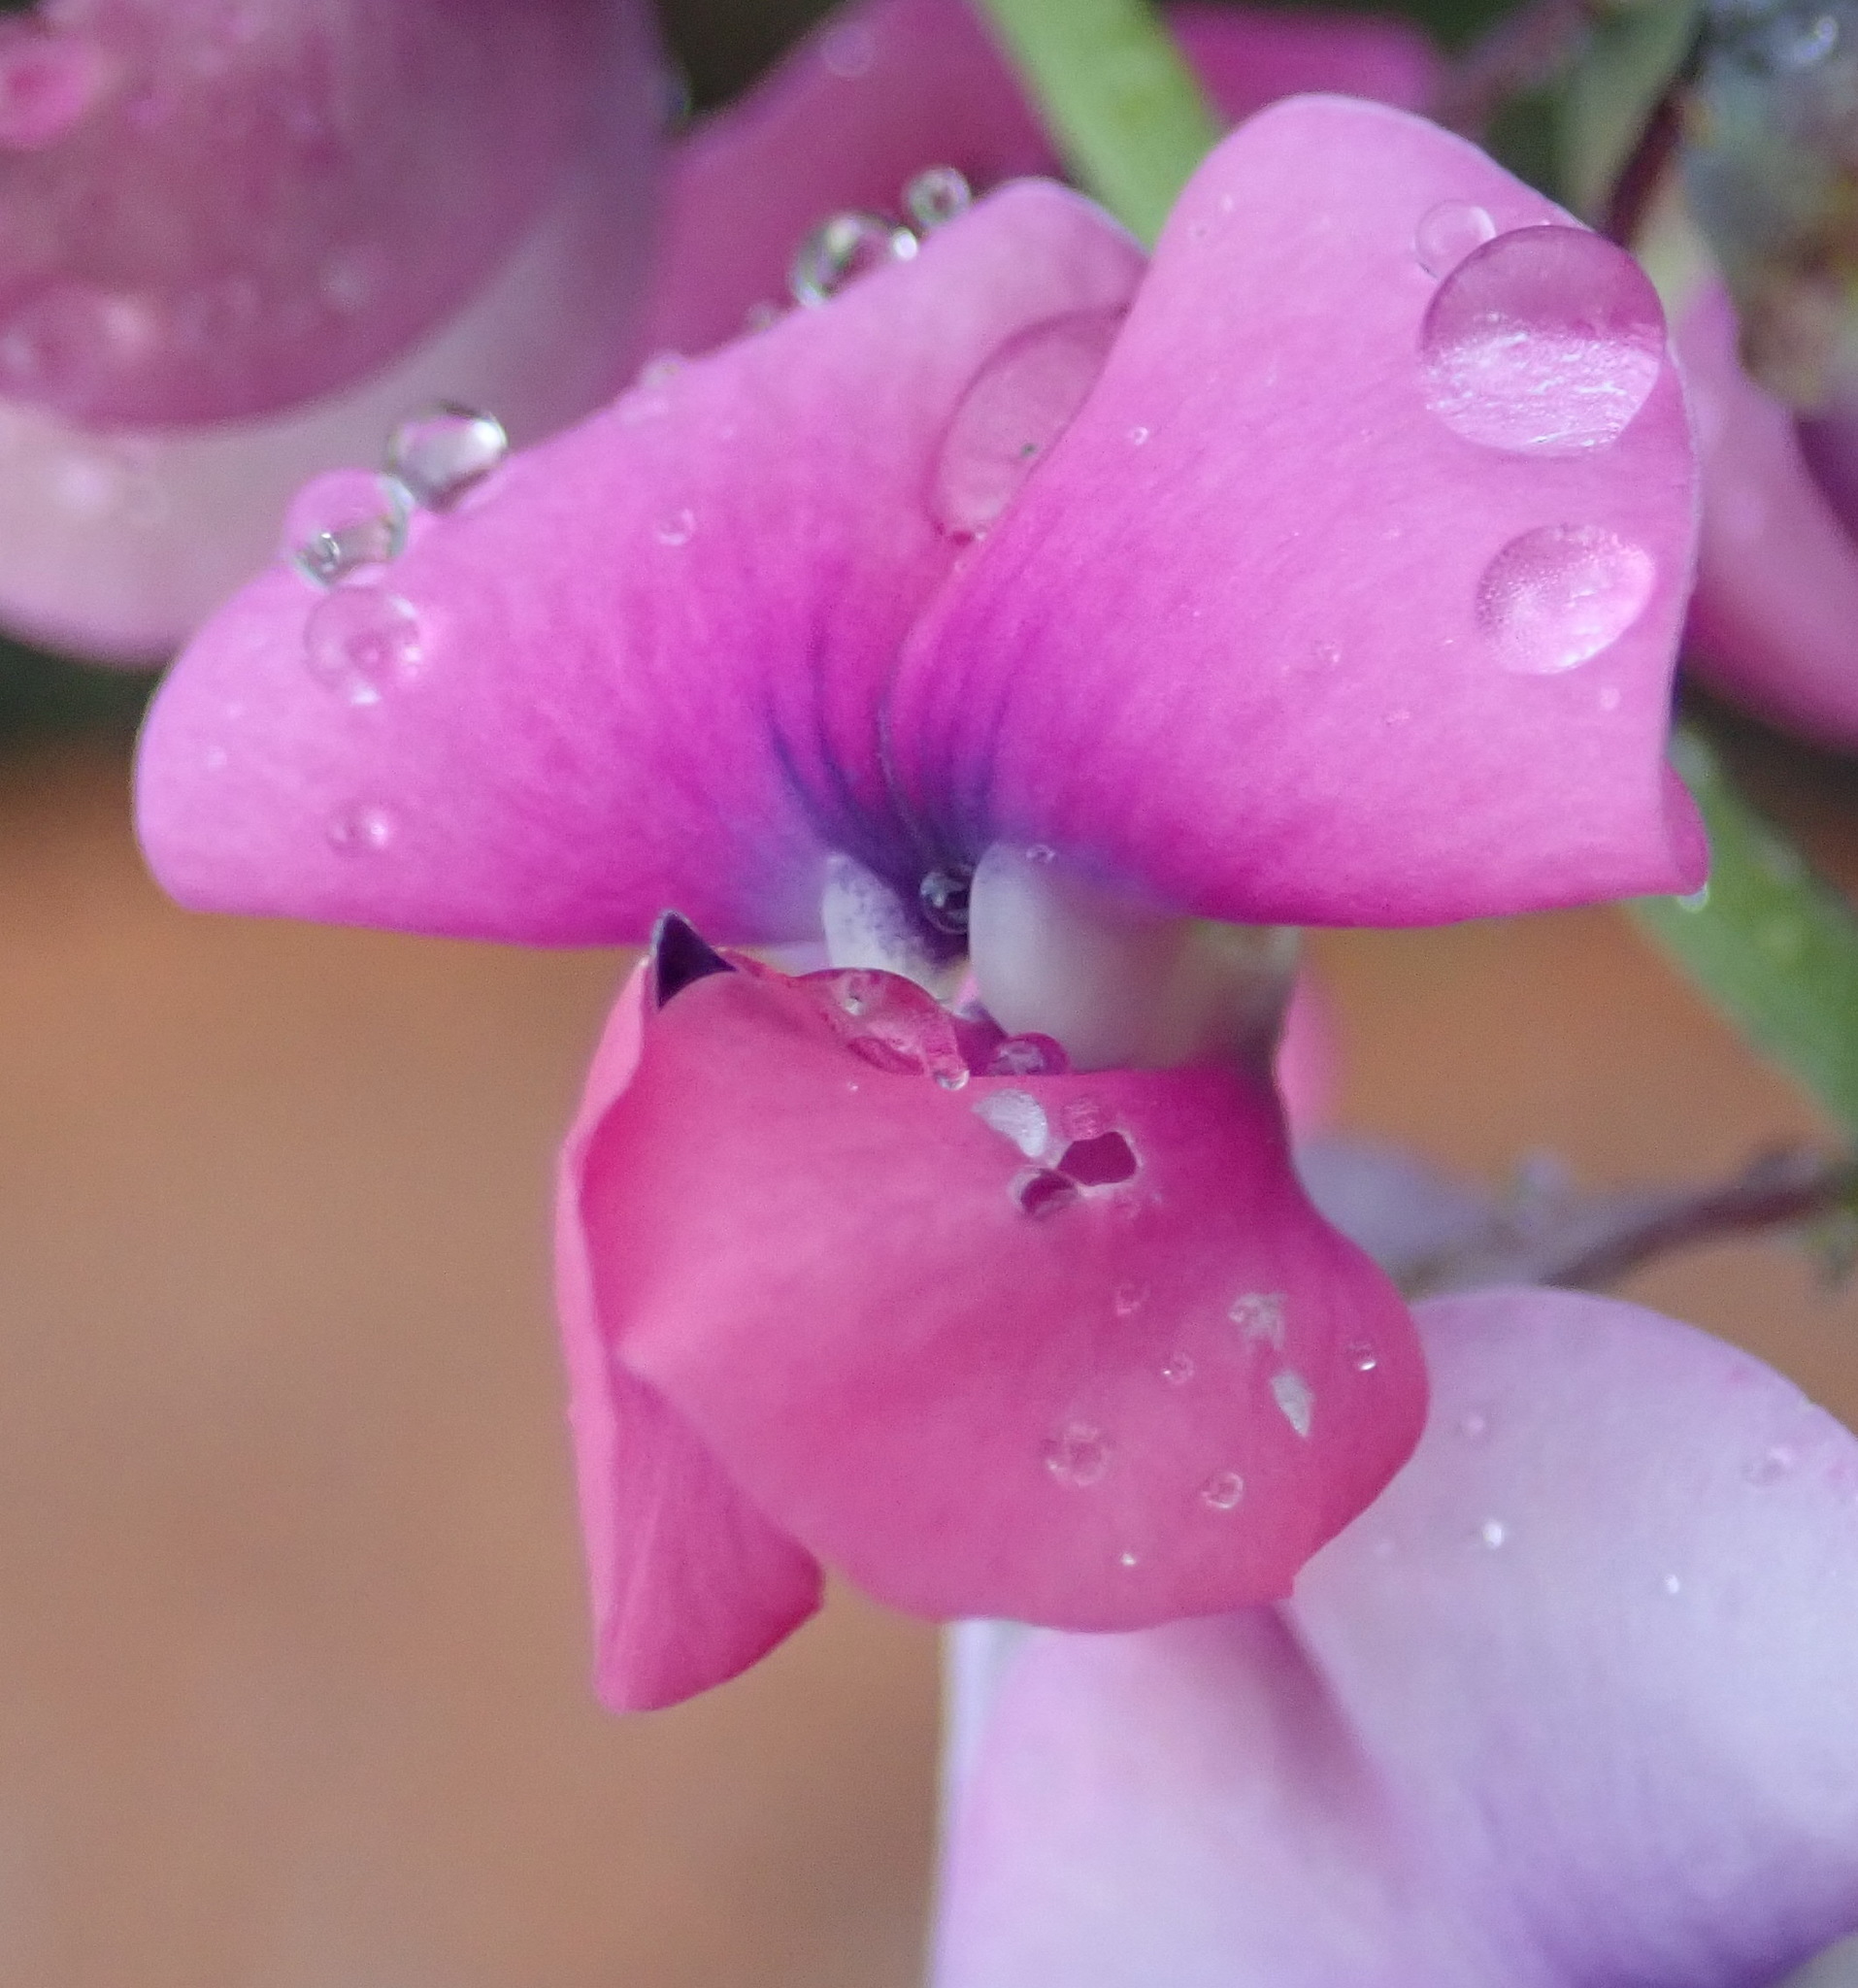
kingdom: Plantae
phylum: Tracheophyta
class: Magnoliopsida
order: Fabales
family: Fabaceae
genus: Dipogon
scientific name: Dipogon lignosus
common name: Okie bean
